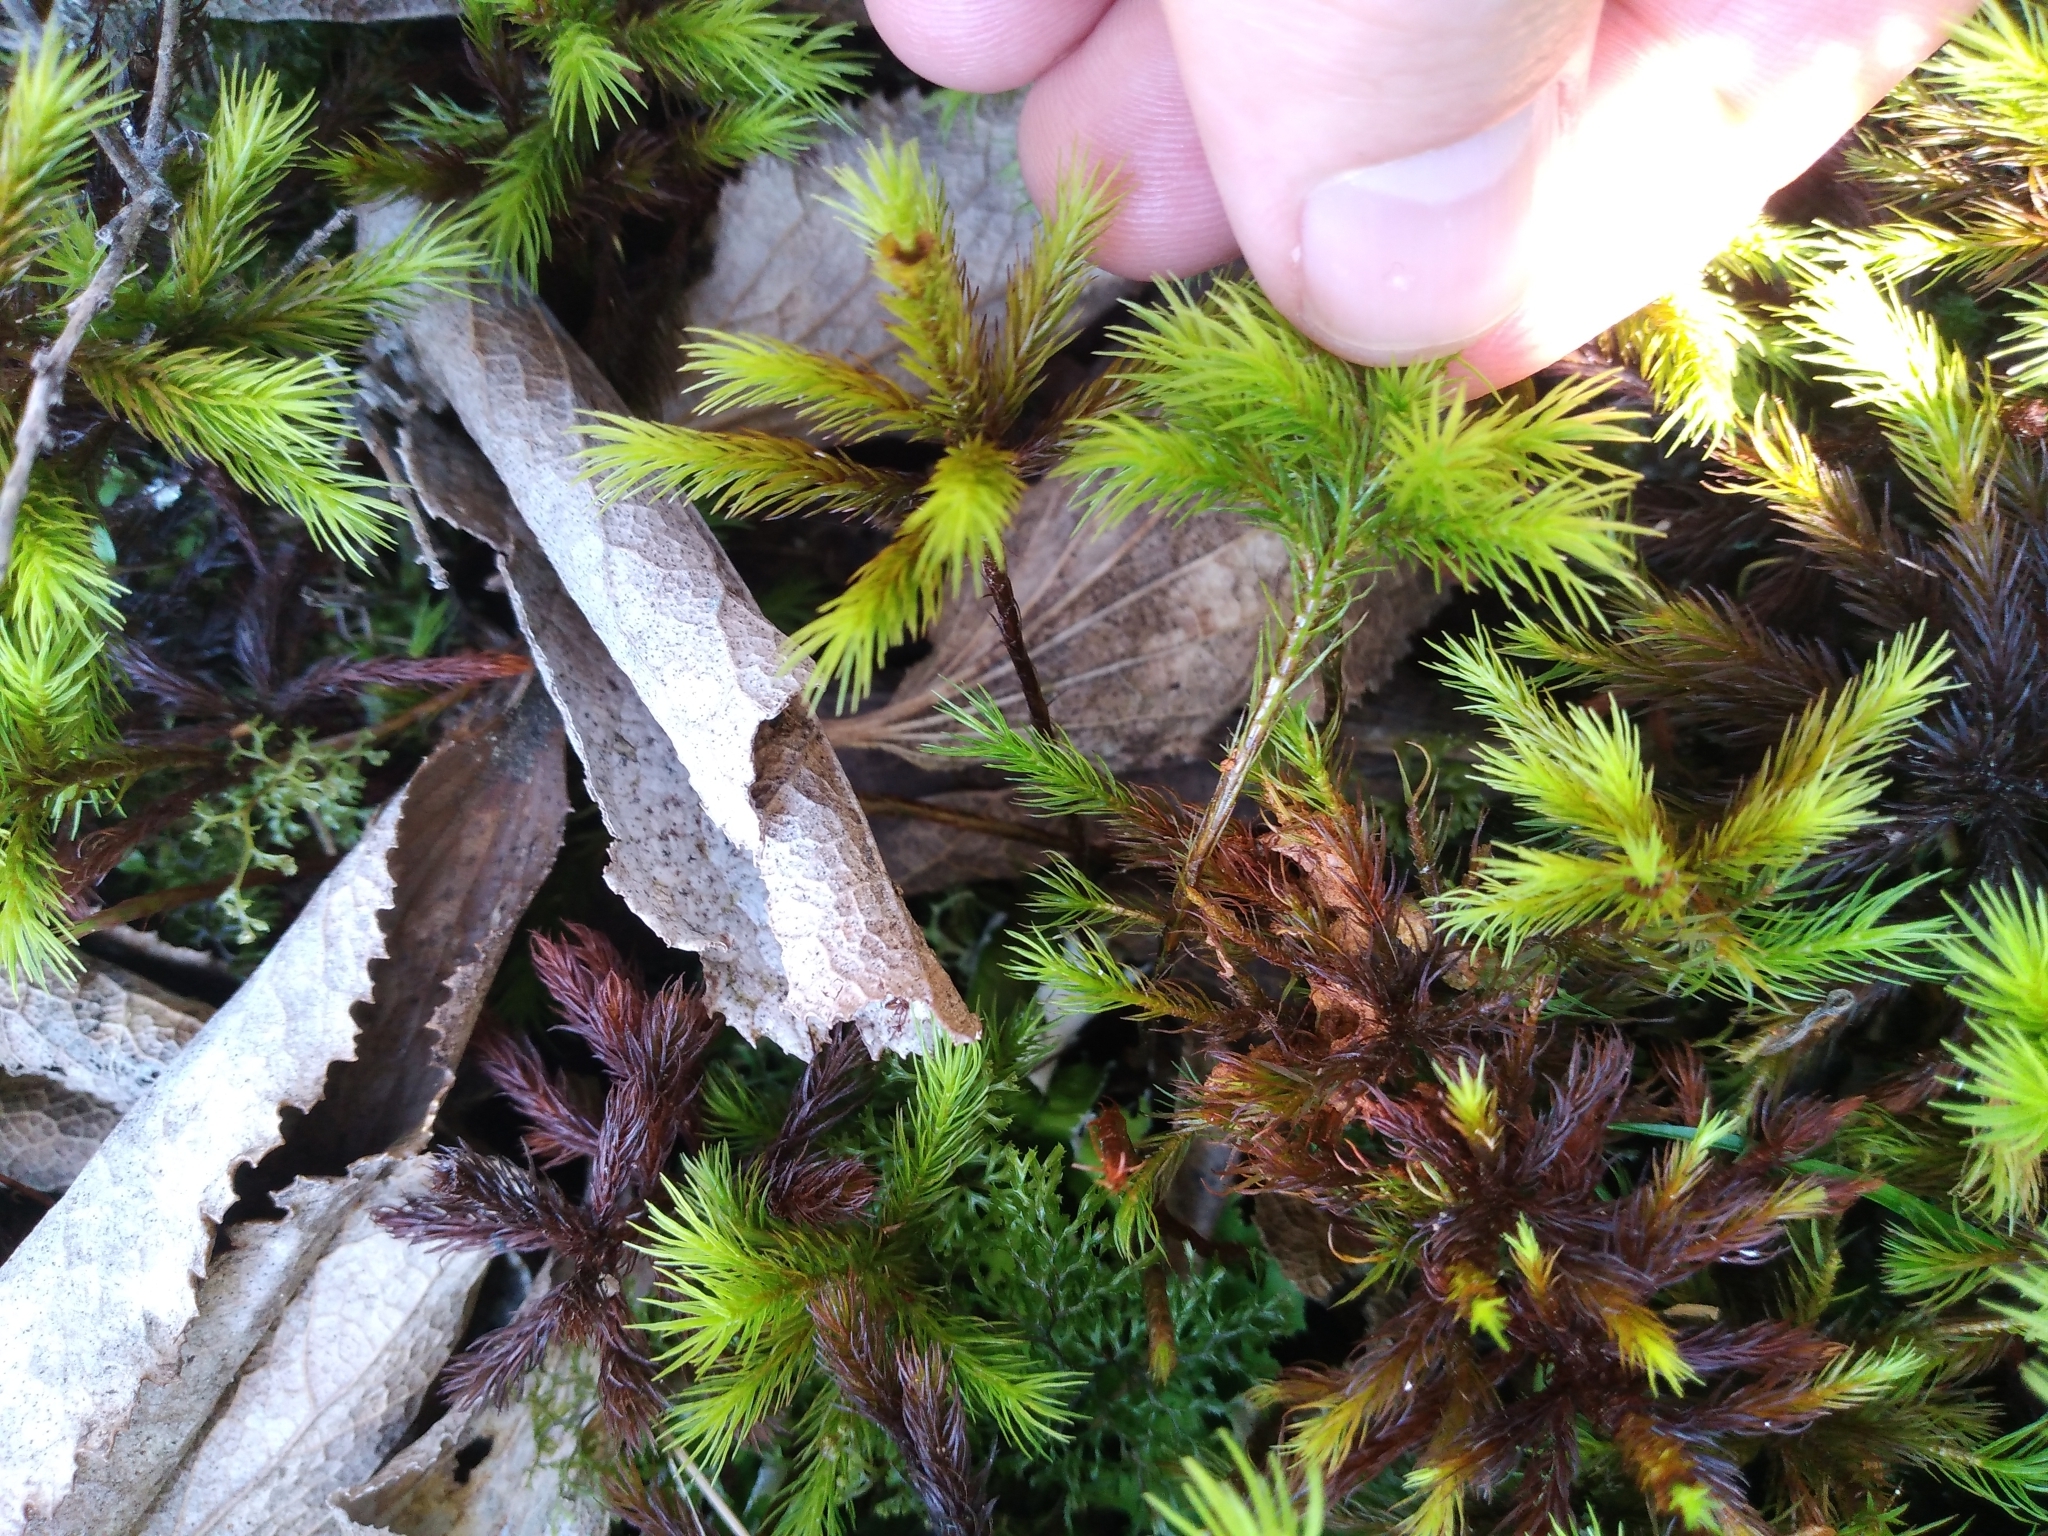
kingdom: Plantae
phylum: Bryophyta
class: Polytrichopsida
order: Polytrichales
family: Polytrichaceae
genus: Dendroligotrichum
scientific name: Dendroligotrichum tongariroense
